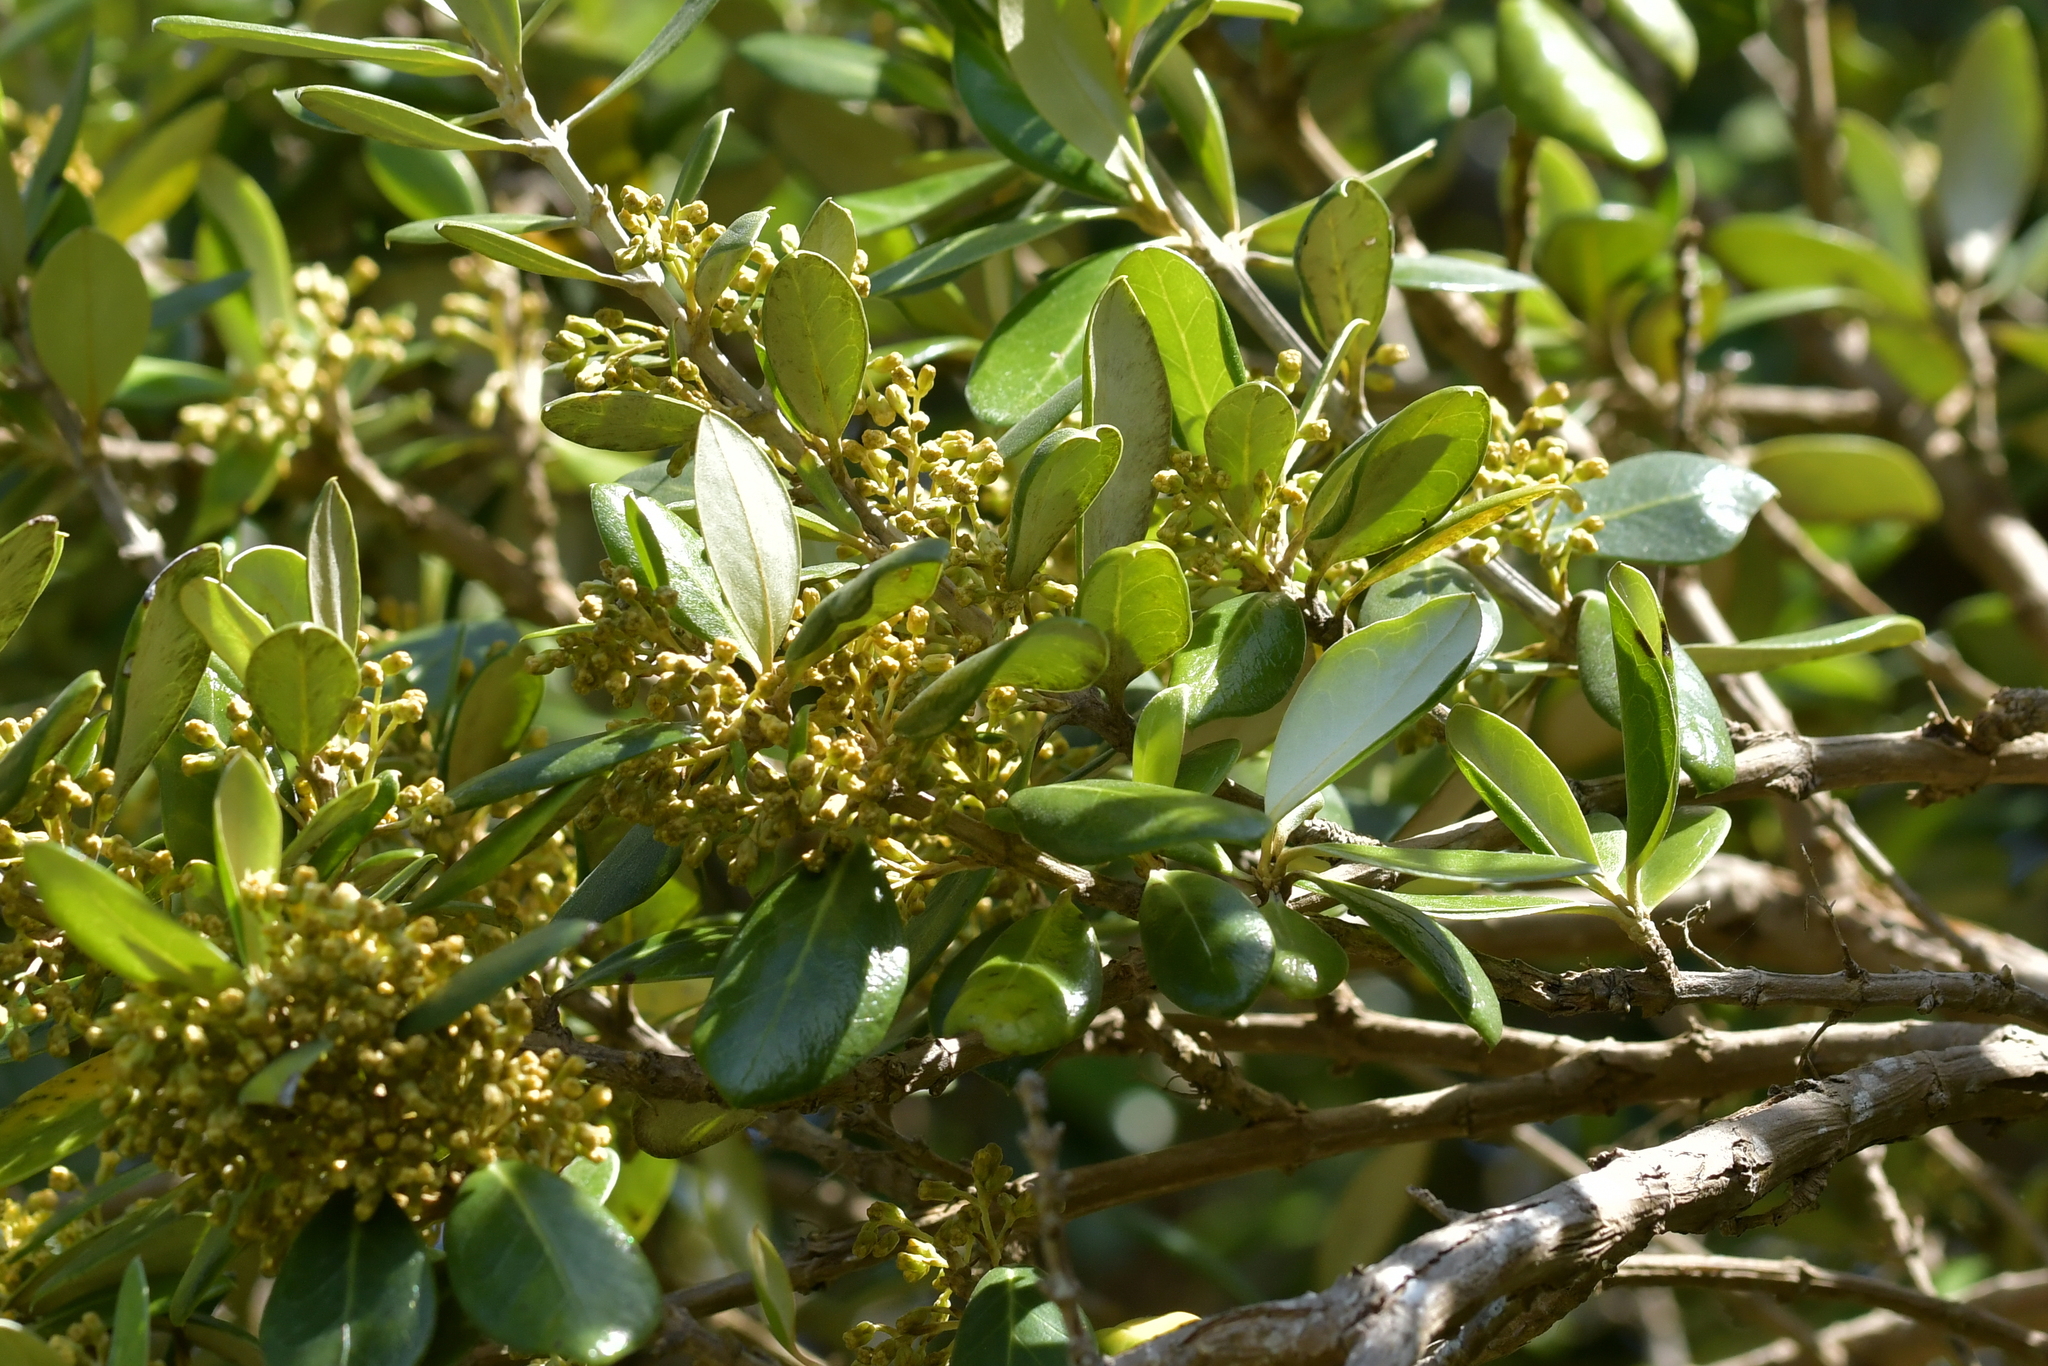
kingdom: Plantae
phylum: Tracheophyta
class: Magnoliopsida
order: Asterales
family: Asteraceae
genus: Olearia
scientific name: Olearia traversiorum
